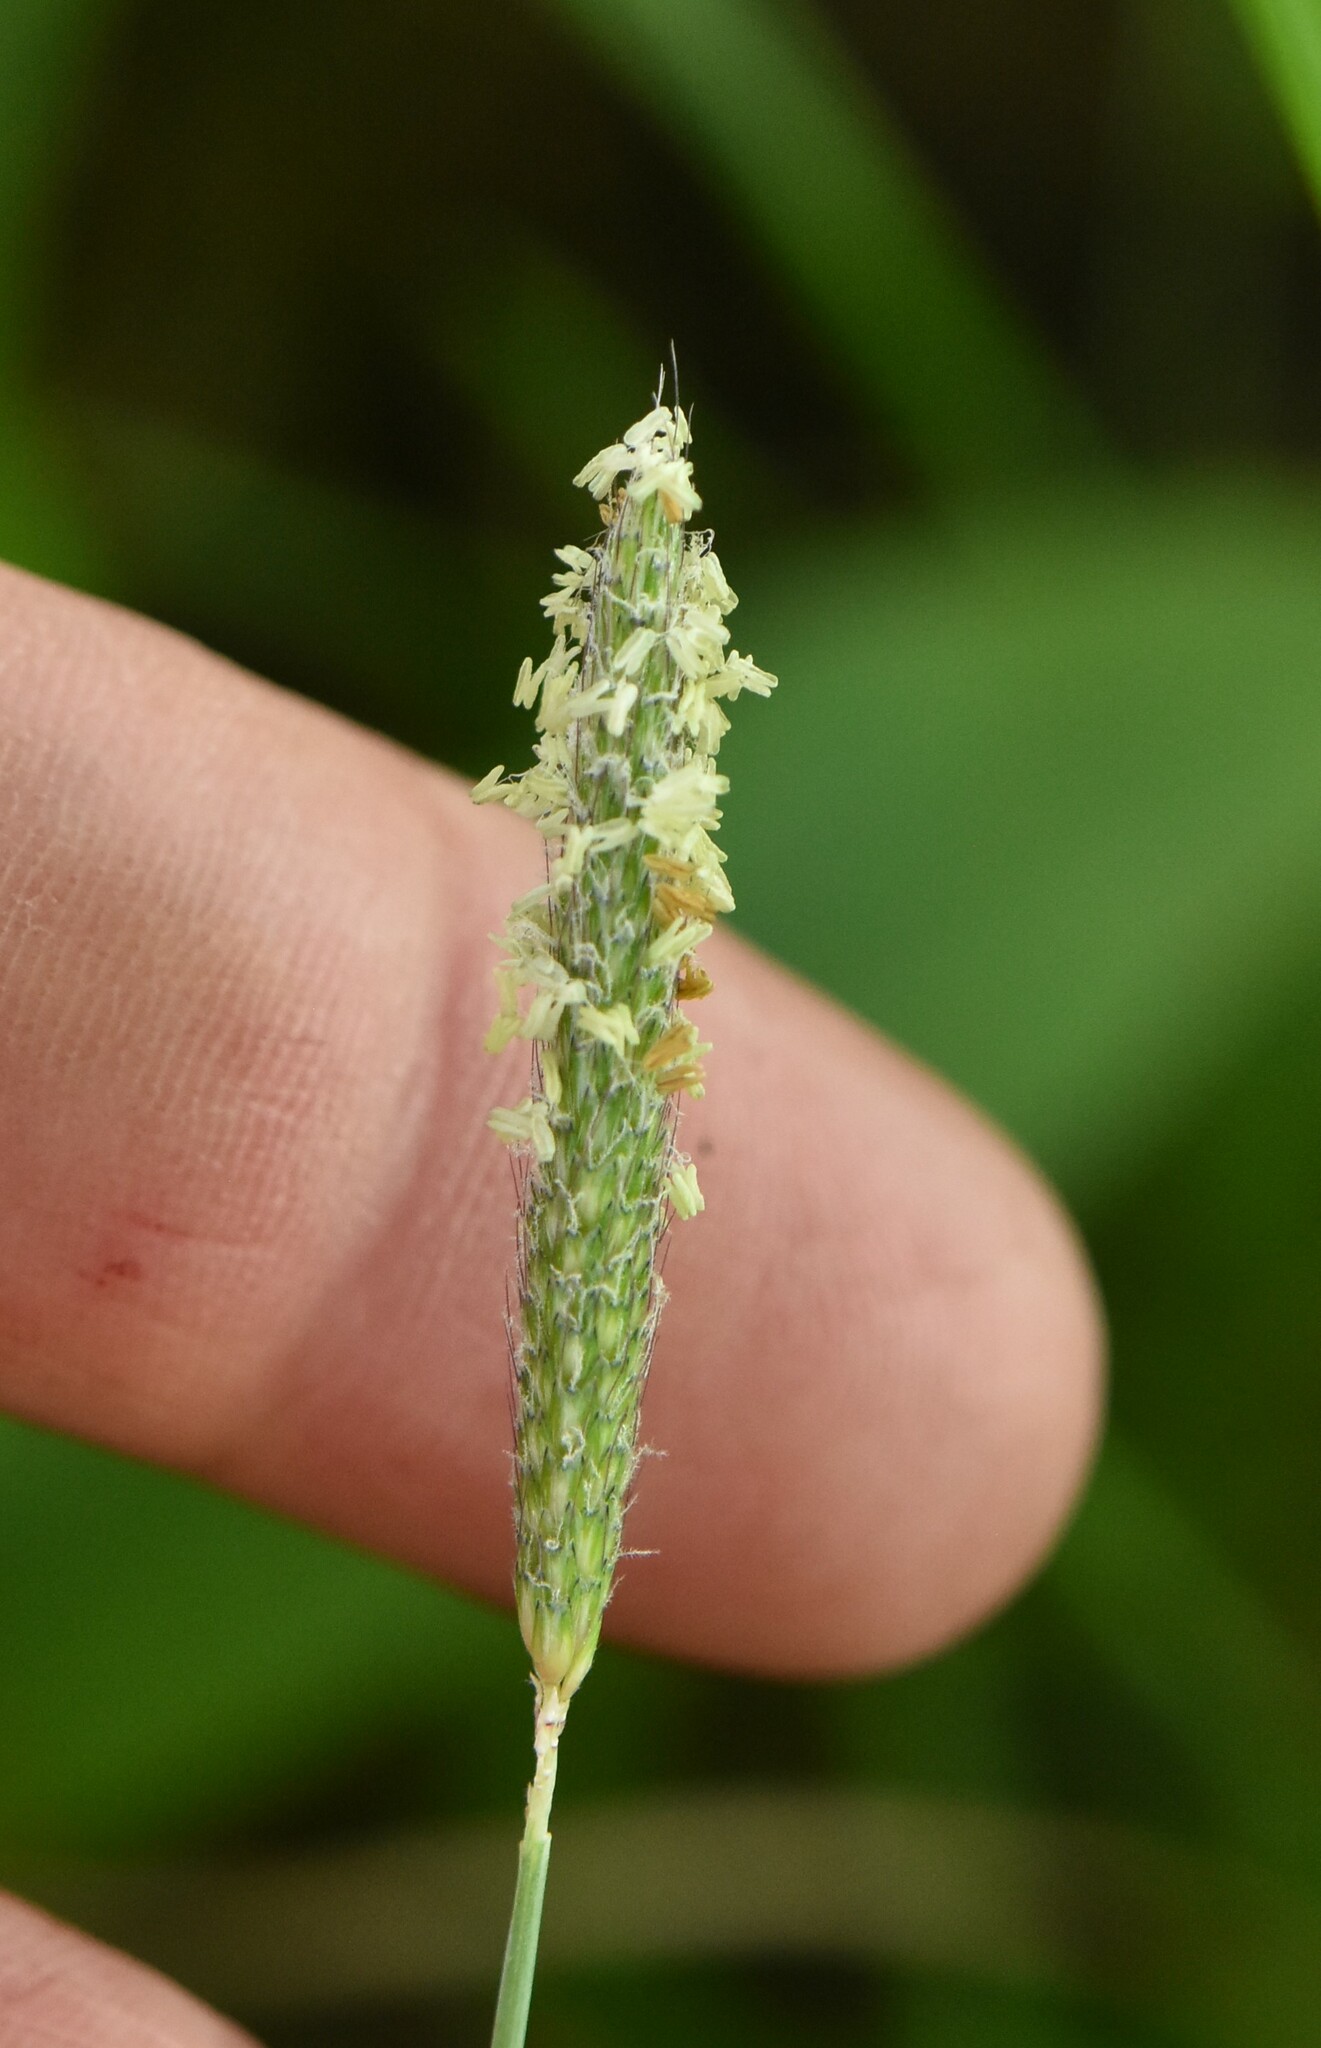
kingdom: Plantae
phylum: Tracheophyta
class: Liliopsida
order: Poales
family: Poaceae
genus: Alopecurus
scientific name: Alopecurus geniculatus
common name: Water foxtail
